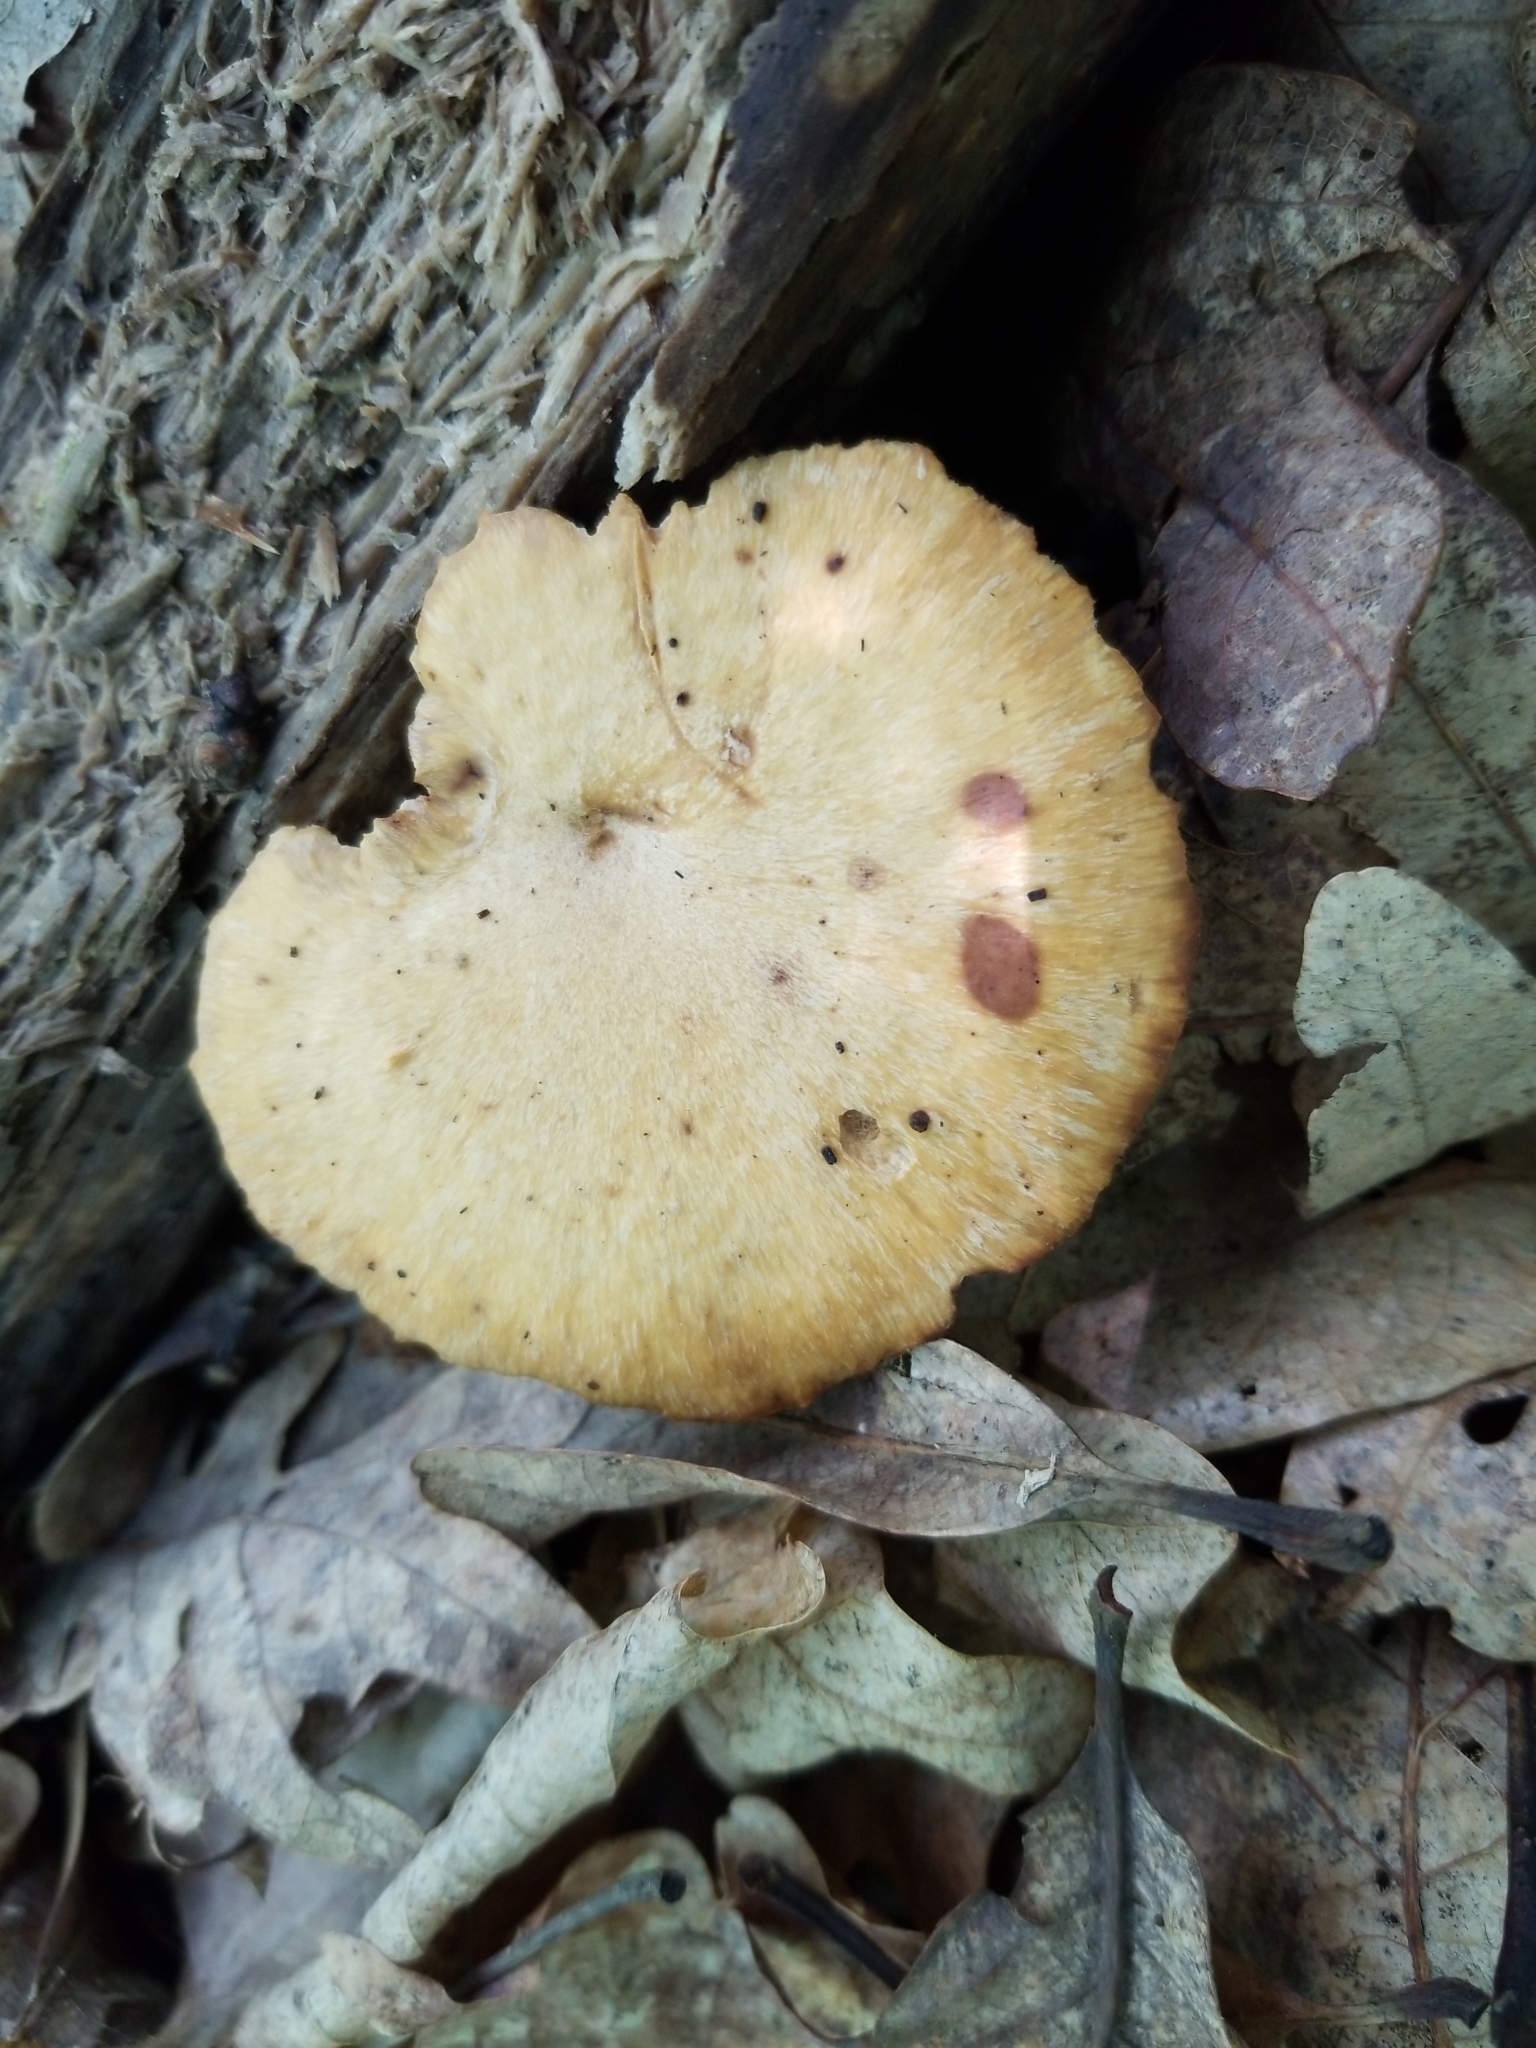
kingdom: Fungi
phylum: Basidiomycota
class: Agaricomycetes
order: Polyporales
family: Polyporaceae
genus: Cerioporus
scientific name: Cerioporus varius
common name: Elegant polypore
